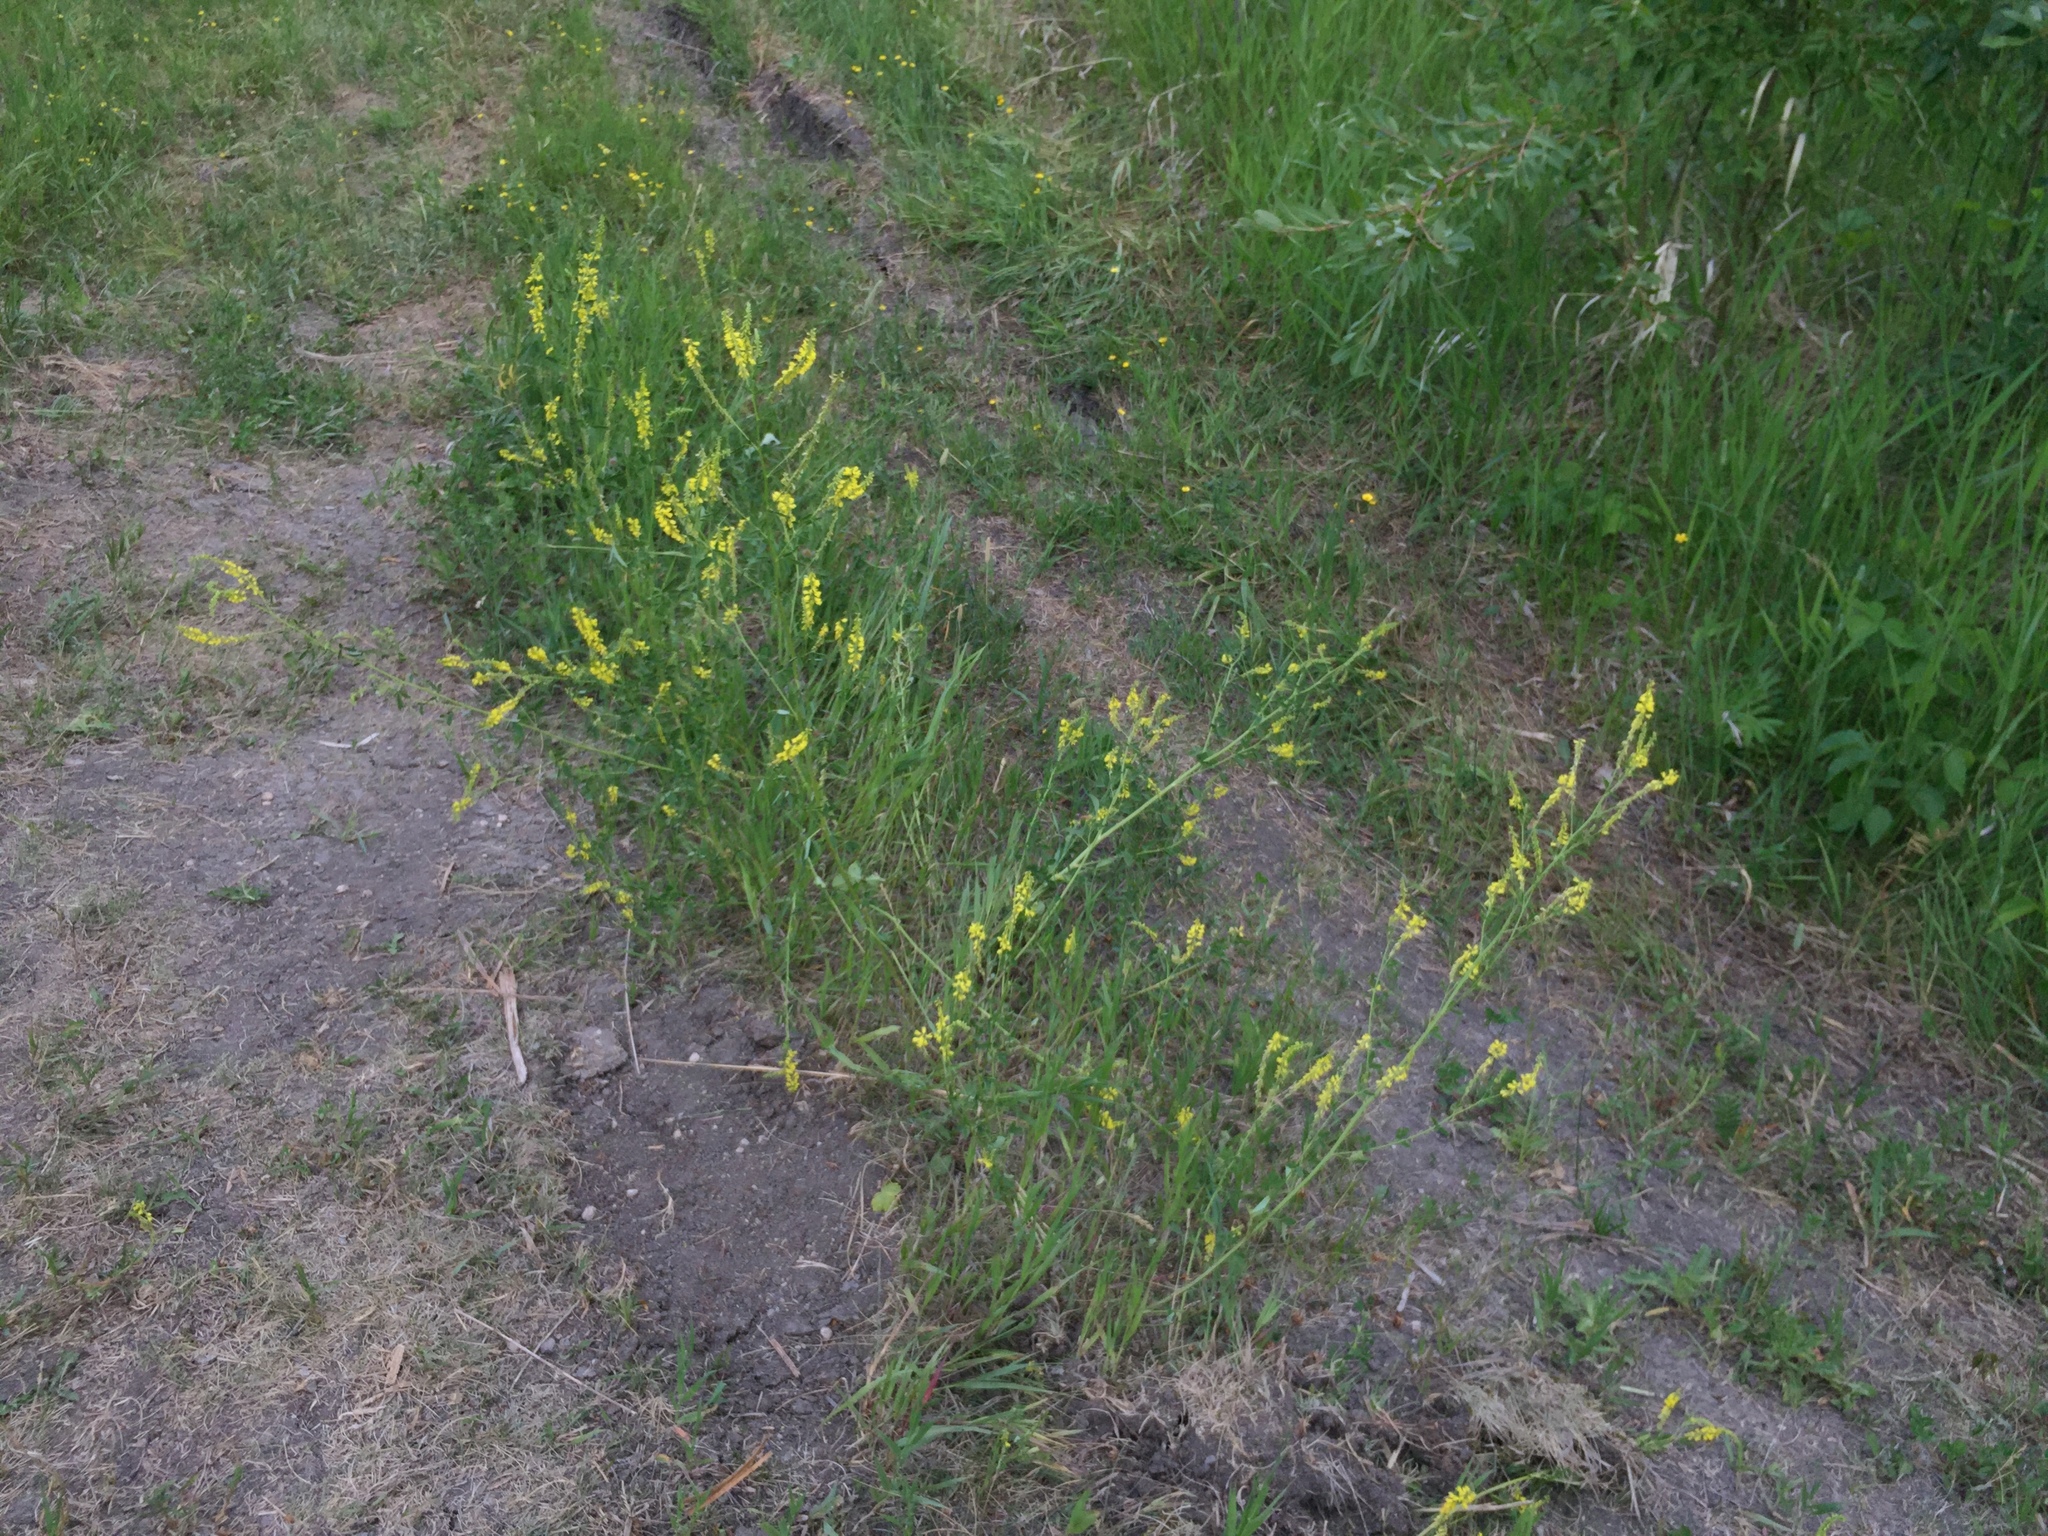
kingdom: Plantae
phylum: Tracheophyta
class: Magnoliopsida
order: Fabales
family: Fabaceae
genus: Melilotus
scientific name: Melilotus officinalis
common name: Sweetclover
